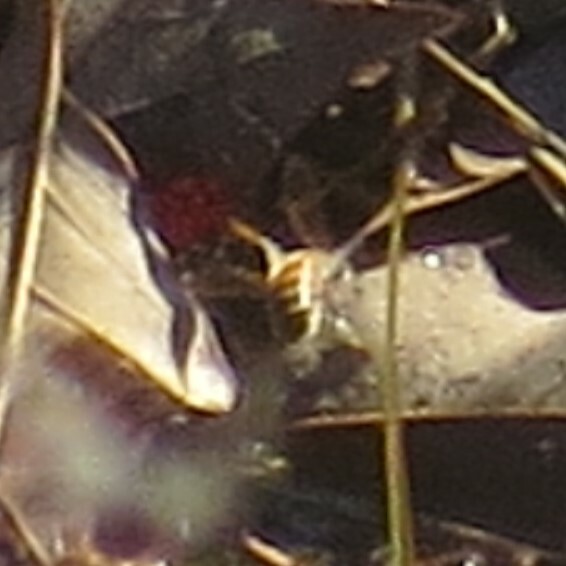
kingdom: Animalia
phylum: Arthropoda
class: Insecta
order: Hymenoptera
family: Apidae
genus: Apis
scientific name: Apis mellifera
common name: Honey bee
